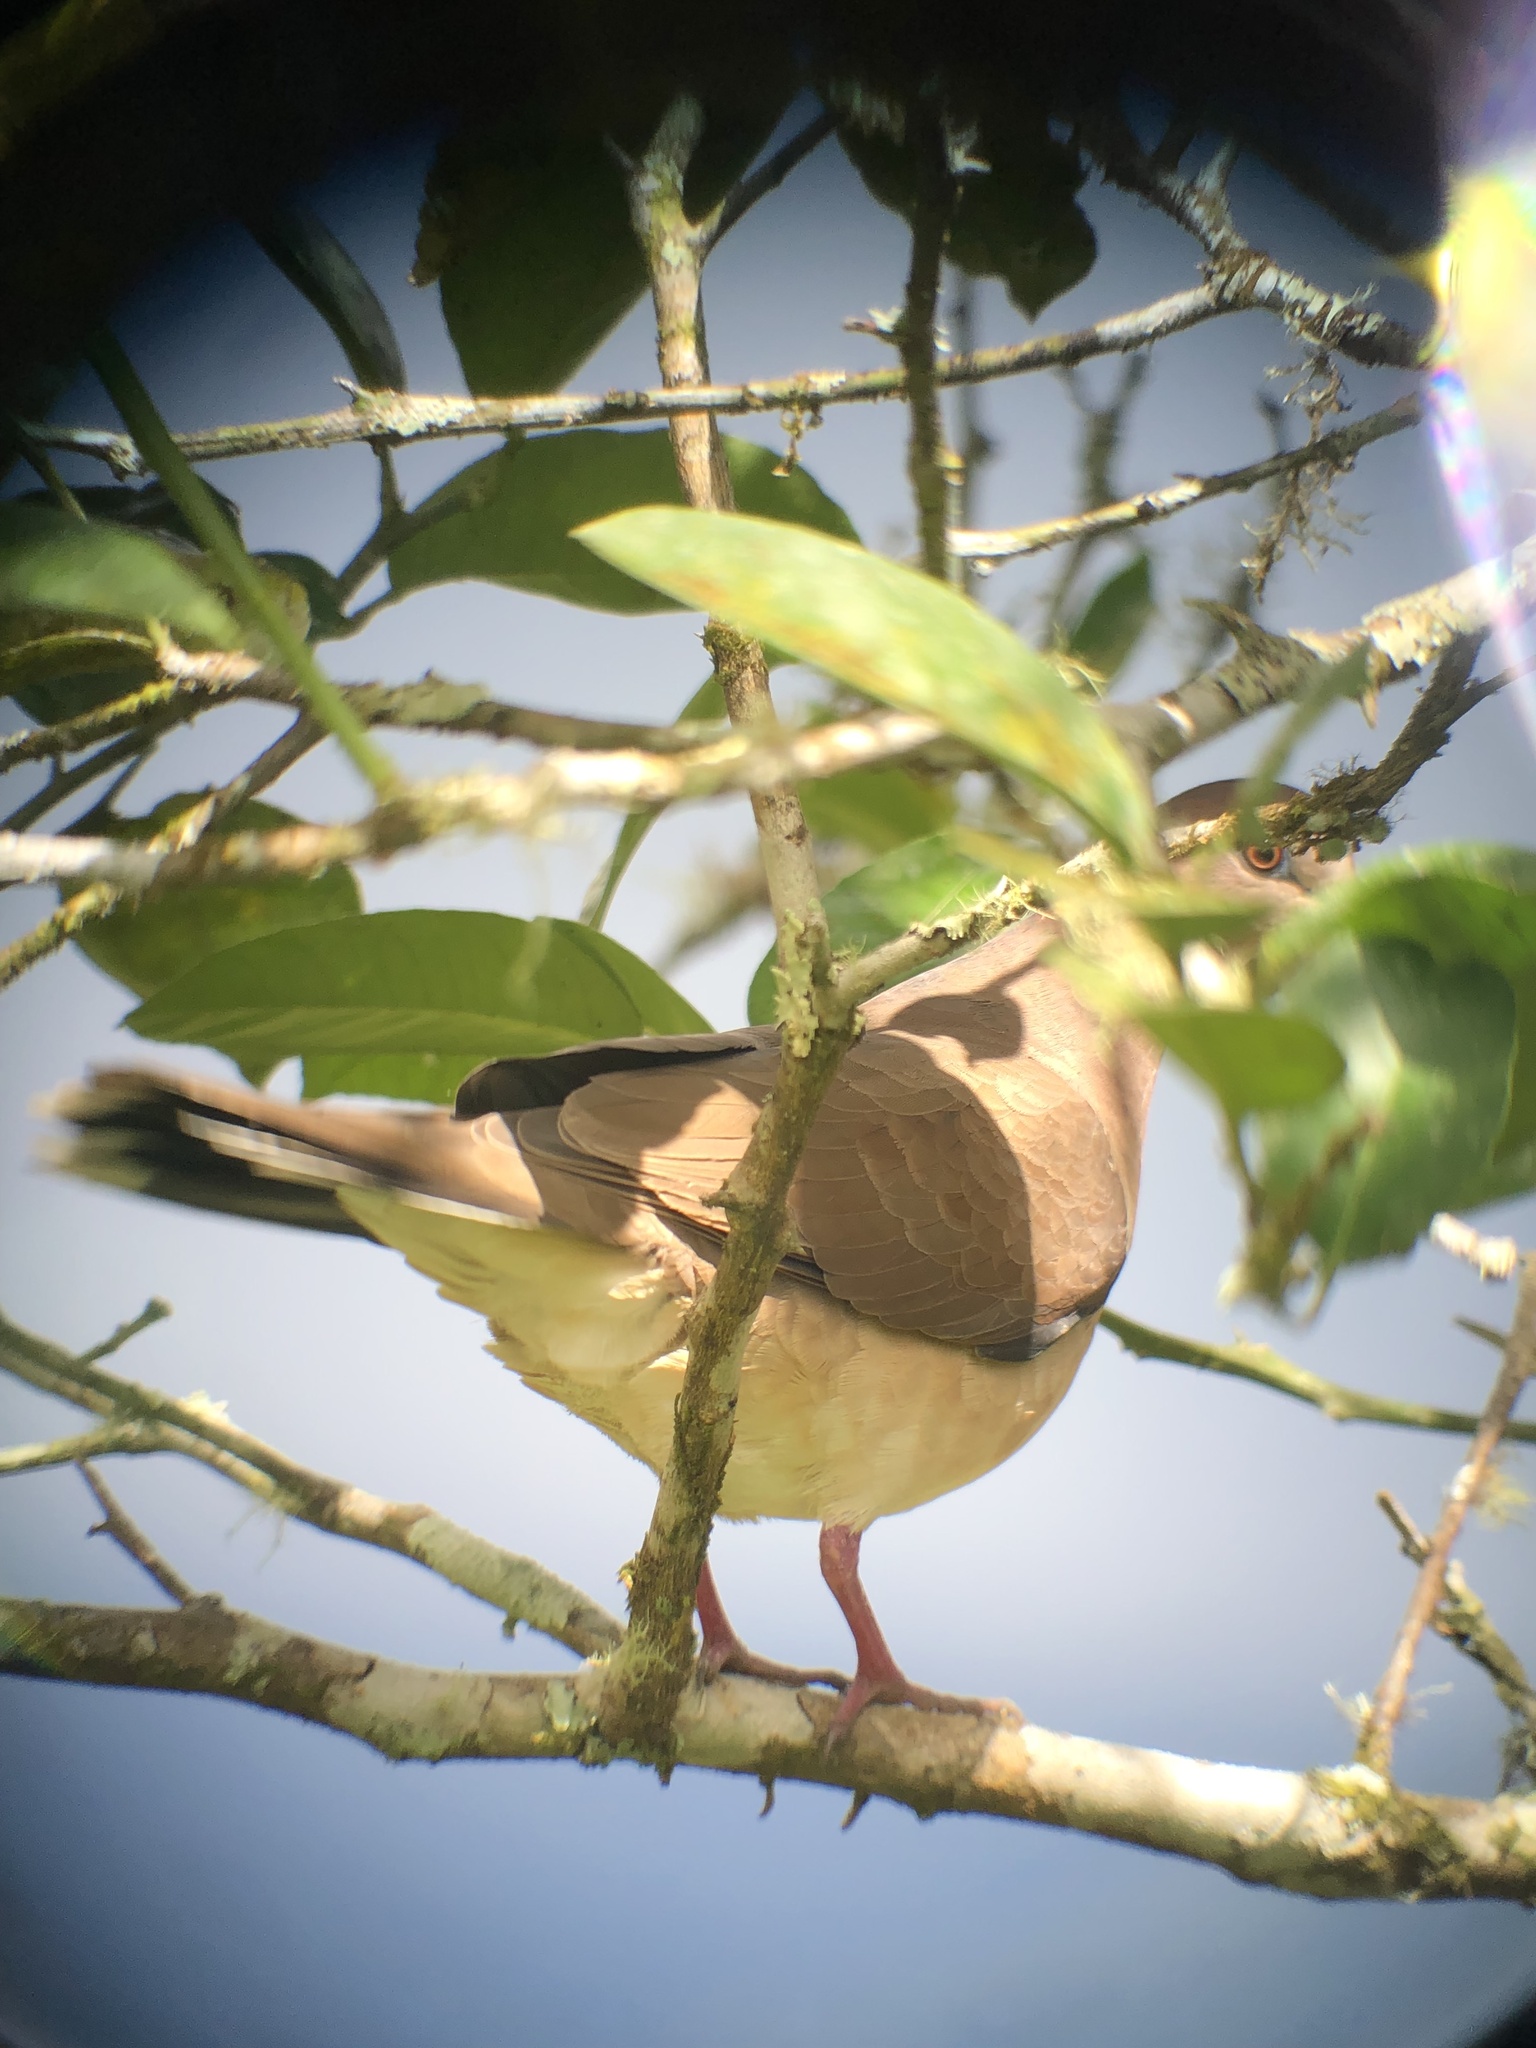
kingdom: Animalia
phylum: Chordata
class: Aves
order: Columbiformes
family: Columbidae
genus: Leptotila
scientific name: Leptotila verreauxi
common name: White-tipped dove
